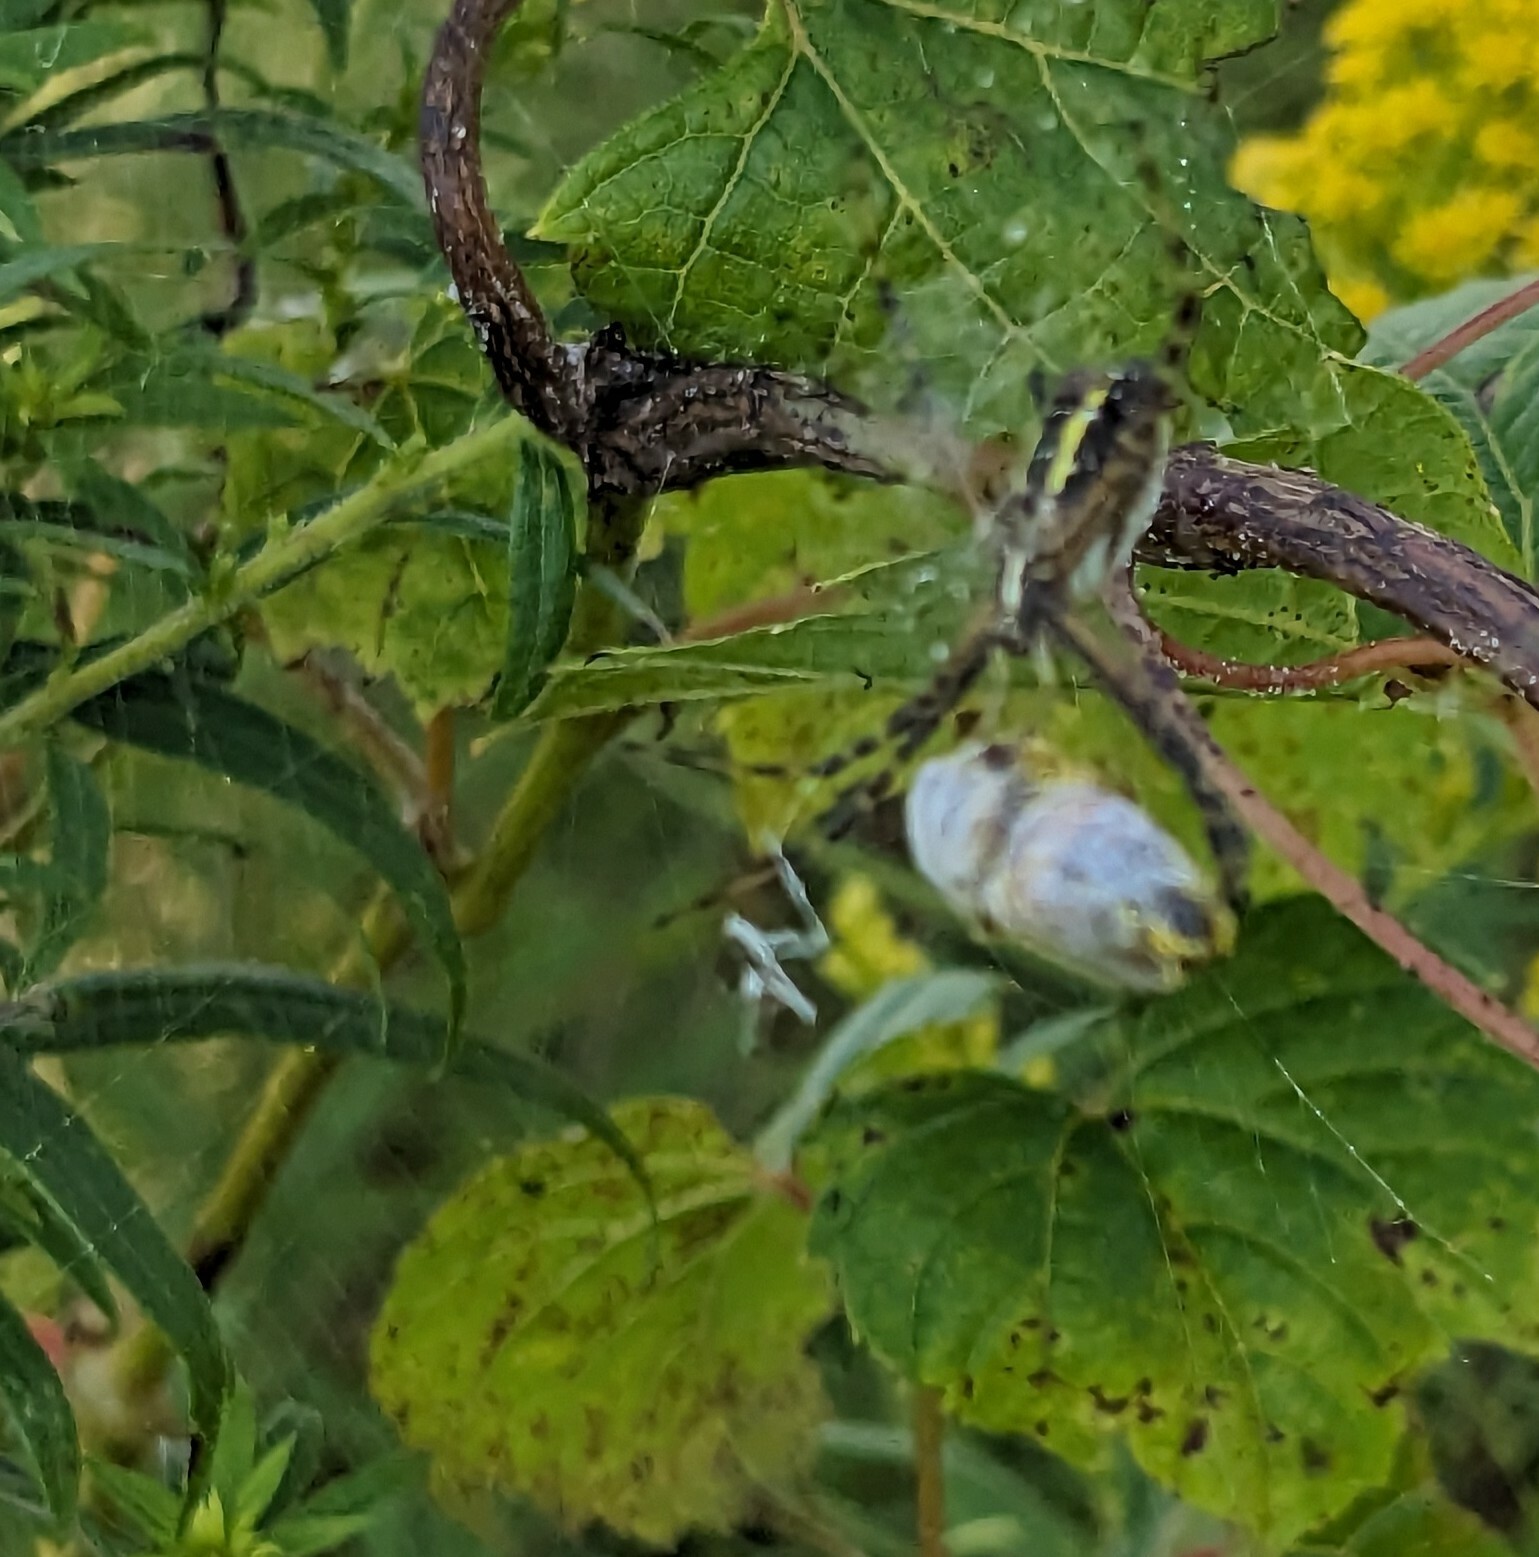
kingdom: Animalia
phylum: Arthropoda
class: Arachnida
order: Araneae
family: Araneidae
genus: Argiope
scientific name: Argiope trifasciata
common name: Banded garden spider
